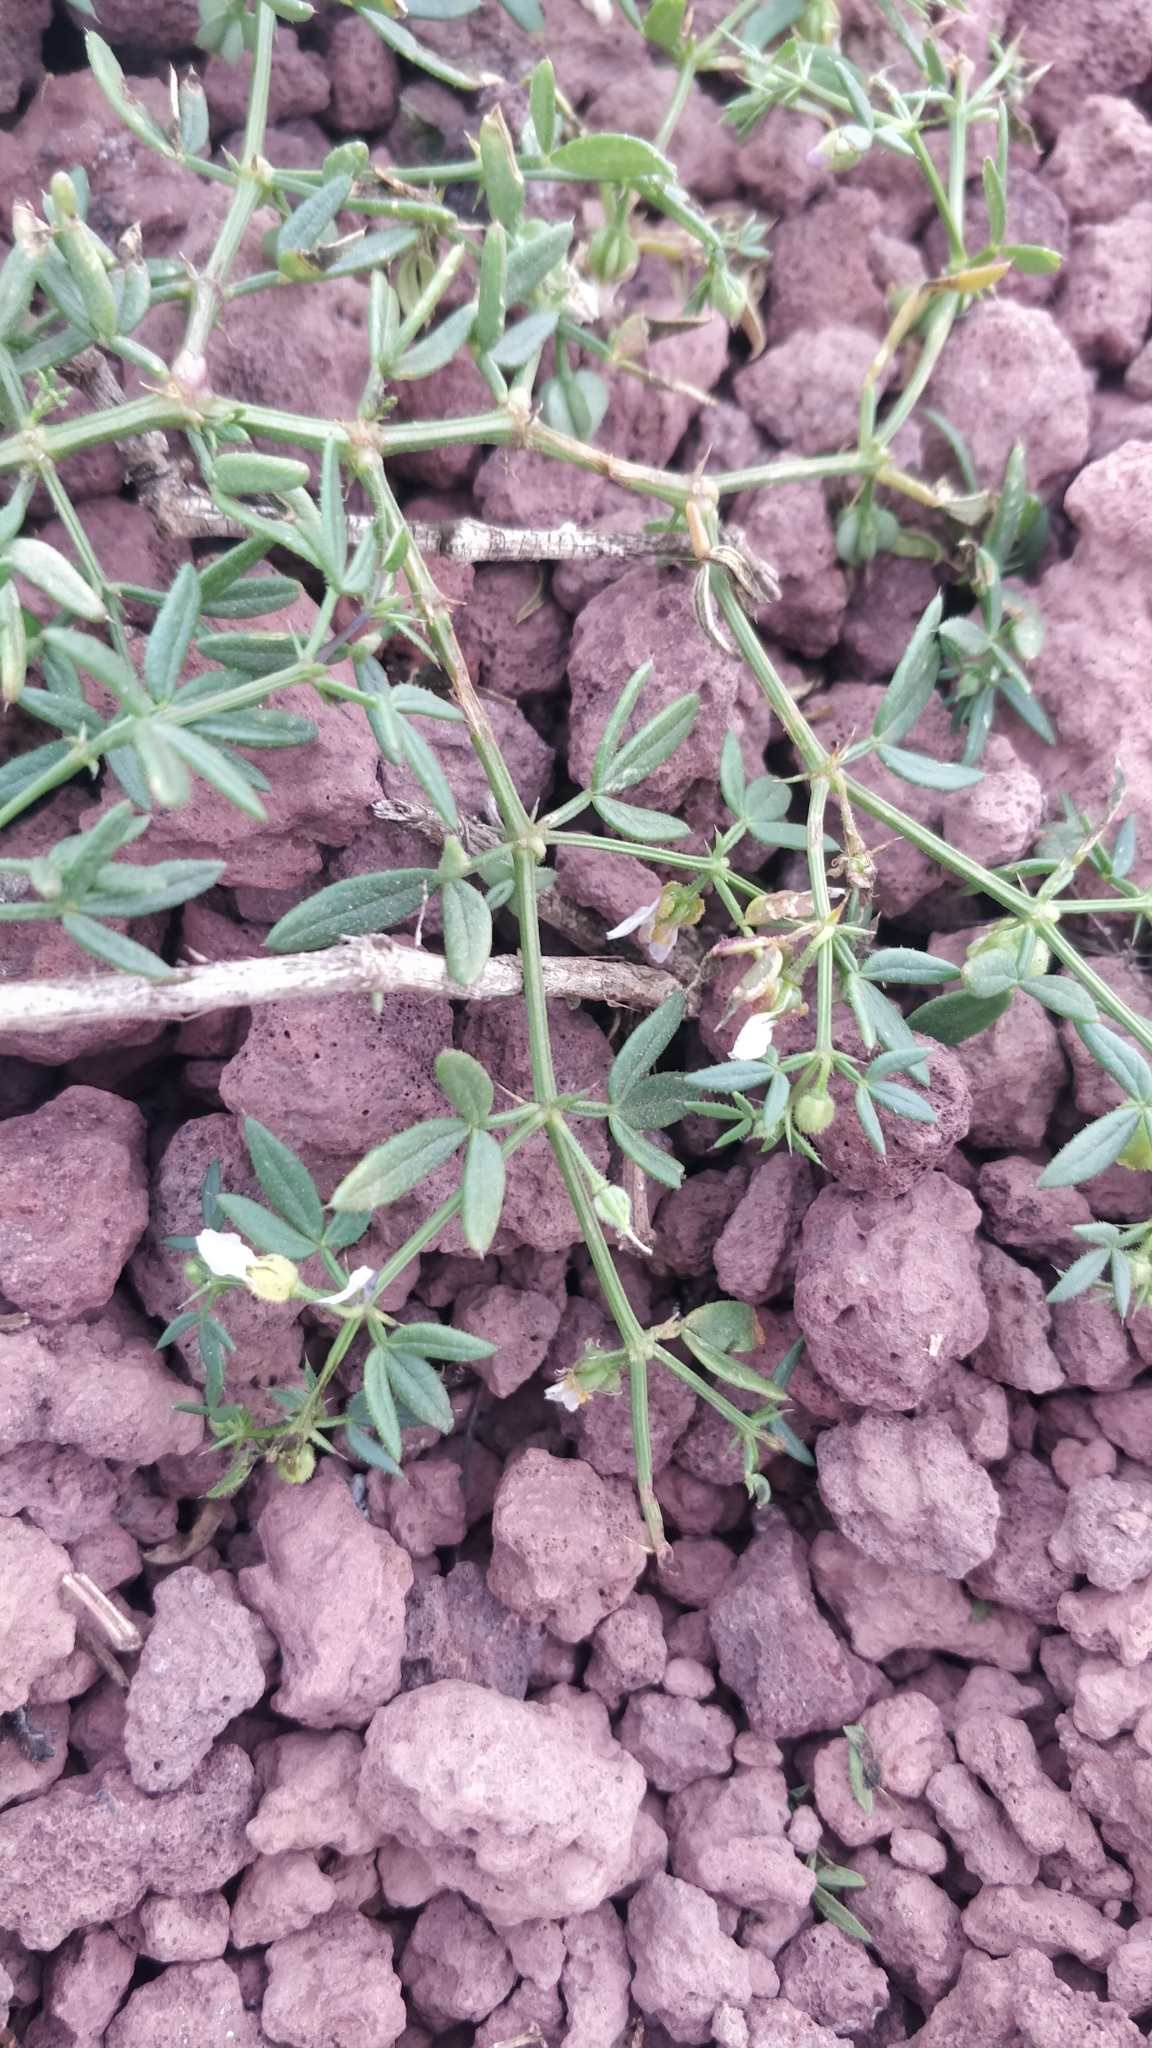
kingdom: Plantae
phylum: Tracheophyta
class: Magnoliopsida
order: Zygophyllales
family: Zygophyllaceae
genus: Fagonia
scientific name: Fagonia cretica
